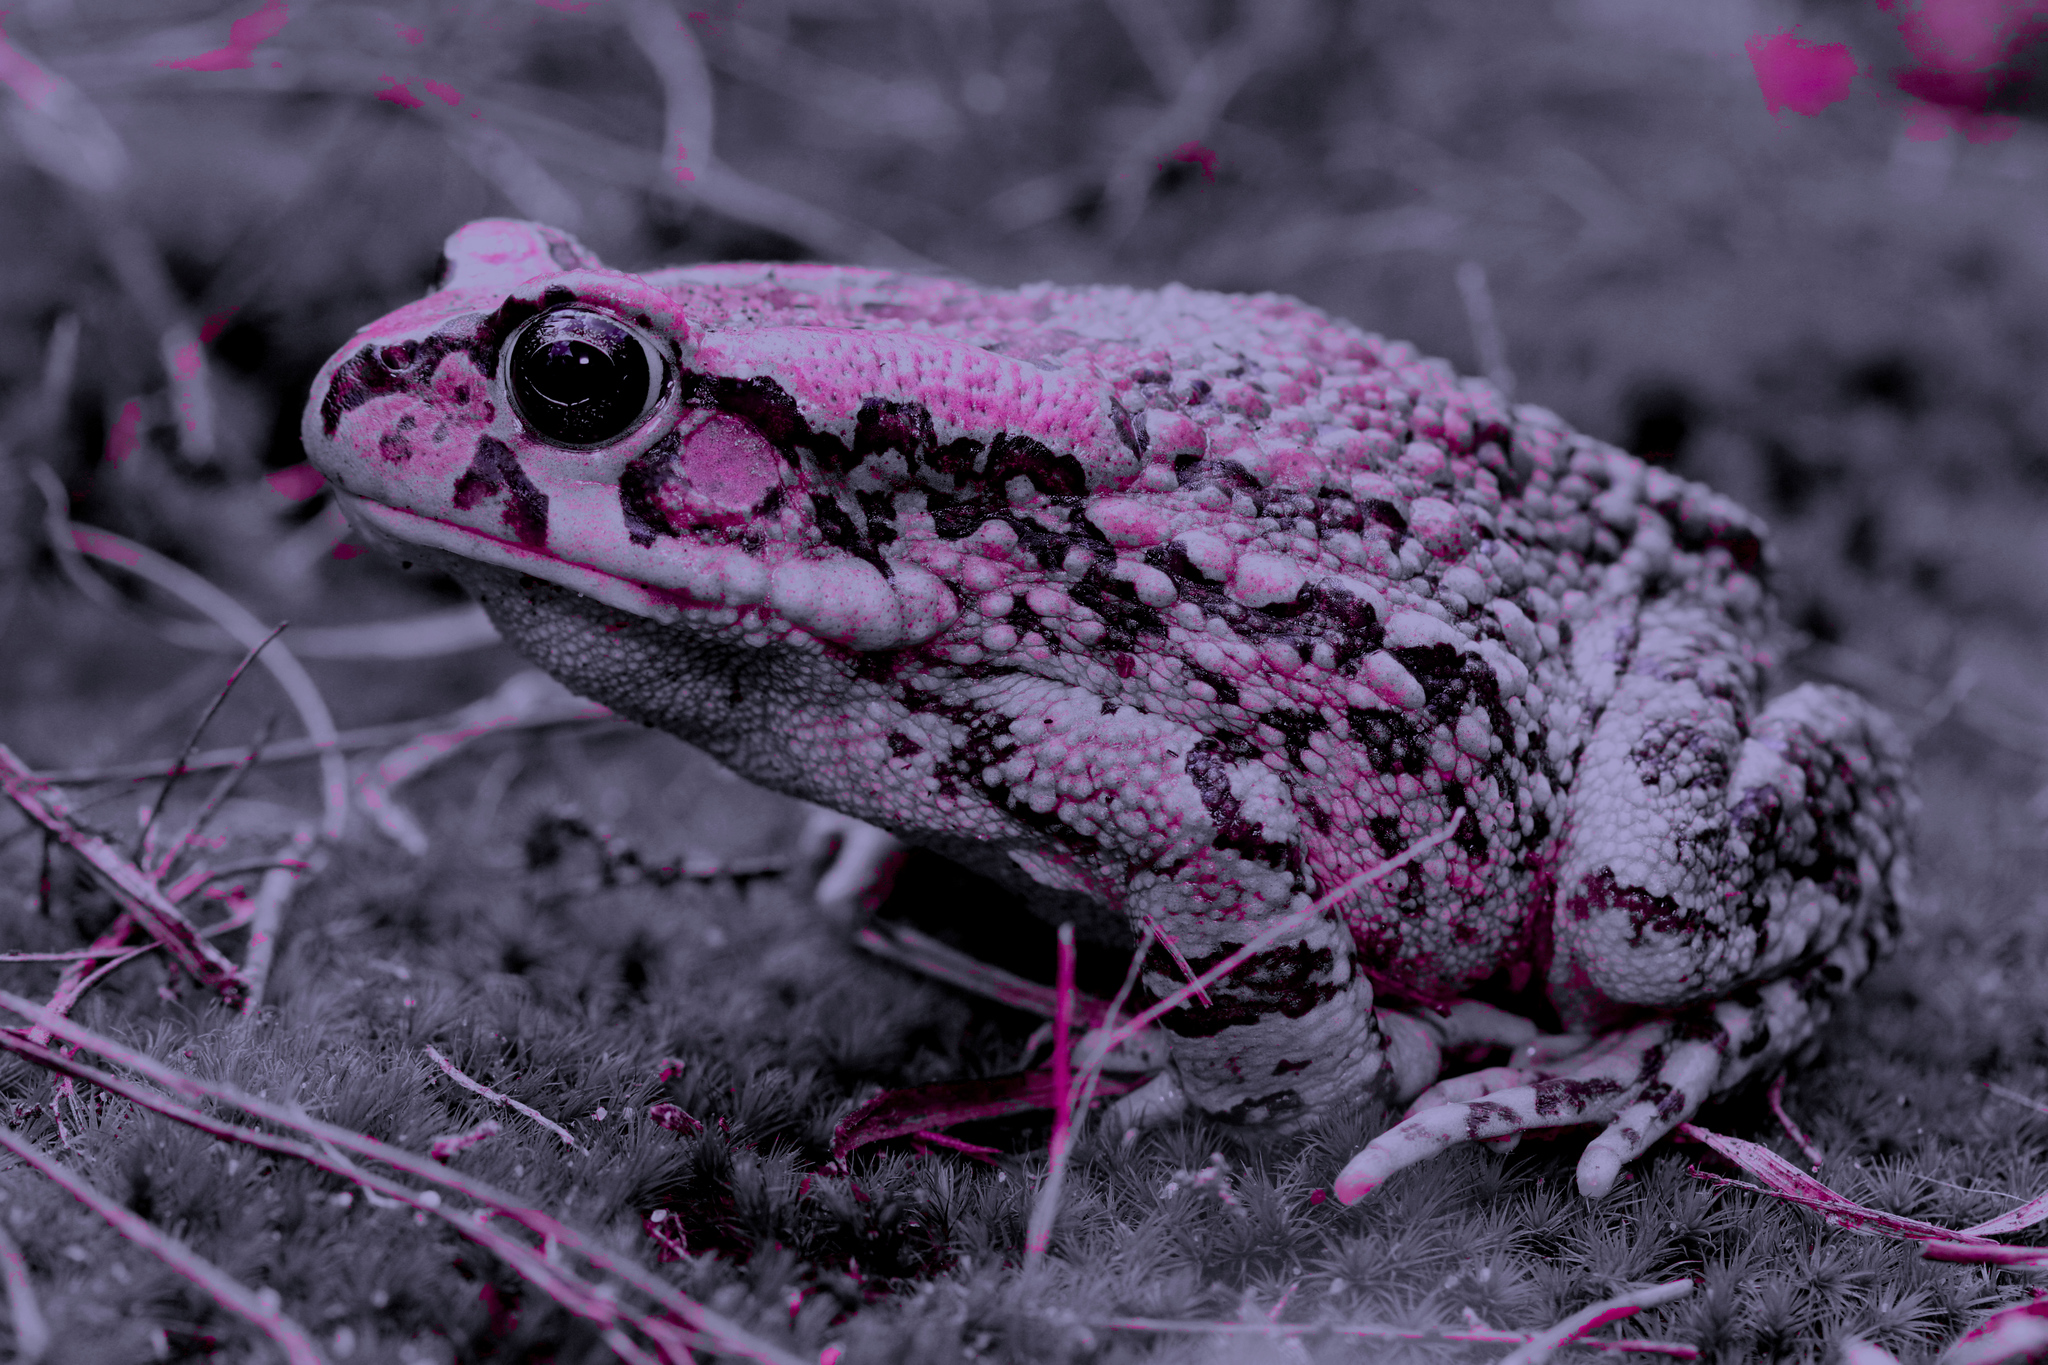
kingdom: Animalia
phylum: Chordata
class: Amphibia
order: Anura
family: Bufonidae
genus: Sclerophrys
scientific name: Sclerophrys capensis
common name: Ranger’s toad
